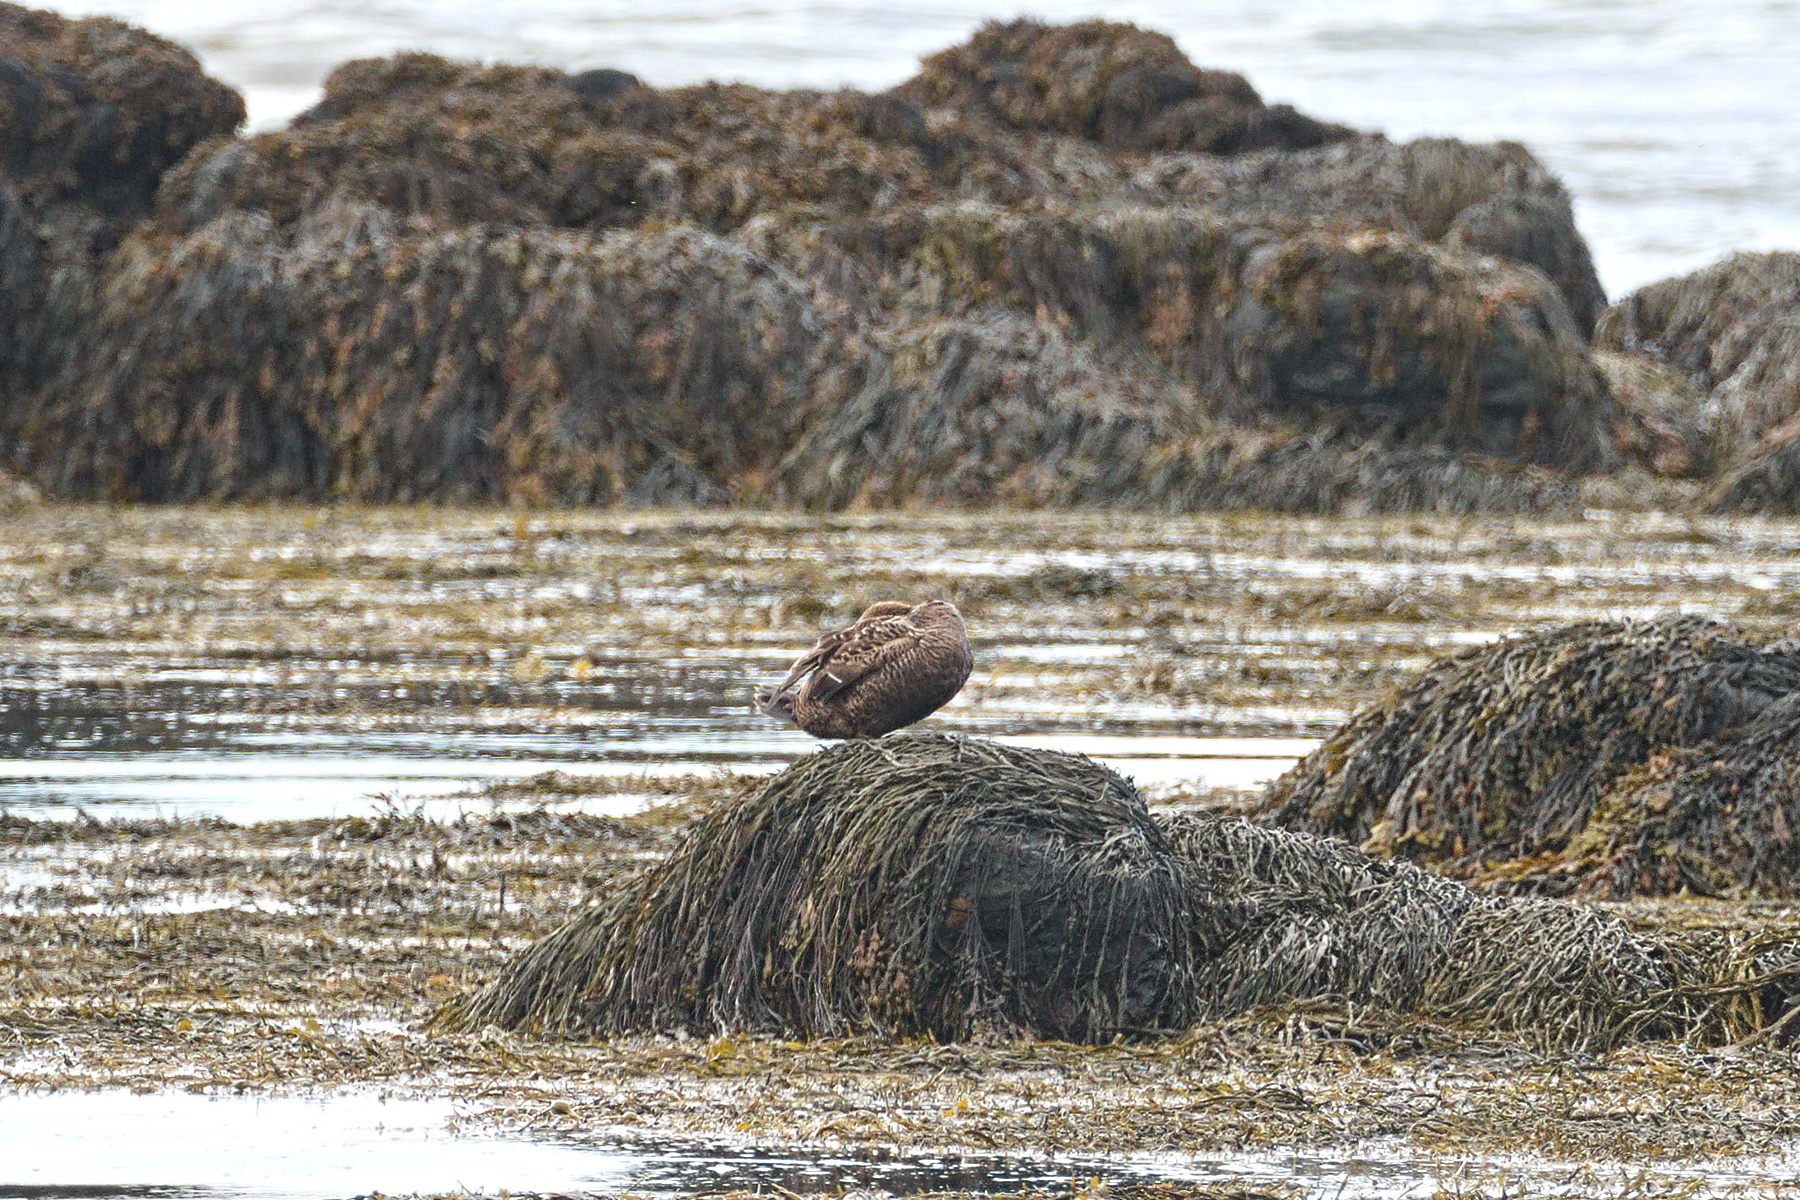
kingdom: Animalia
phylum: Chordata
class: Aves
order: Anseriformes
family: Anatidae
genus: Somateria
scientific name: Somateria mollissima
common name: Common eider
